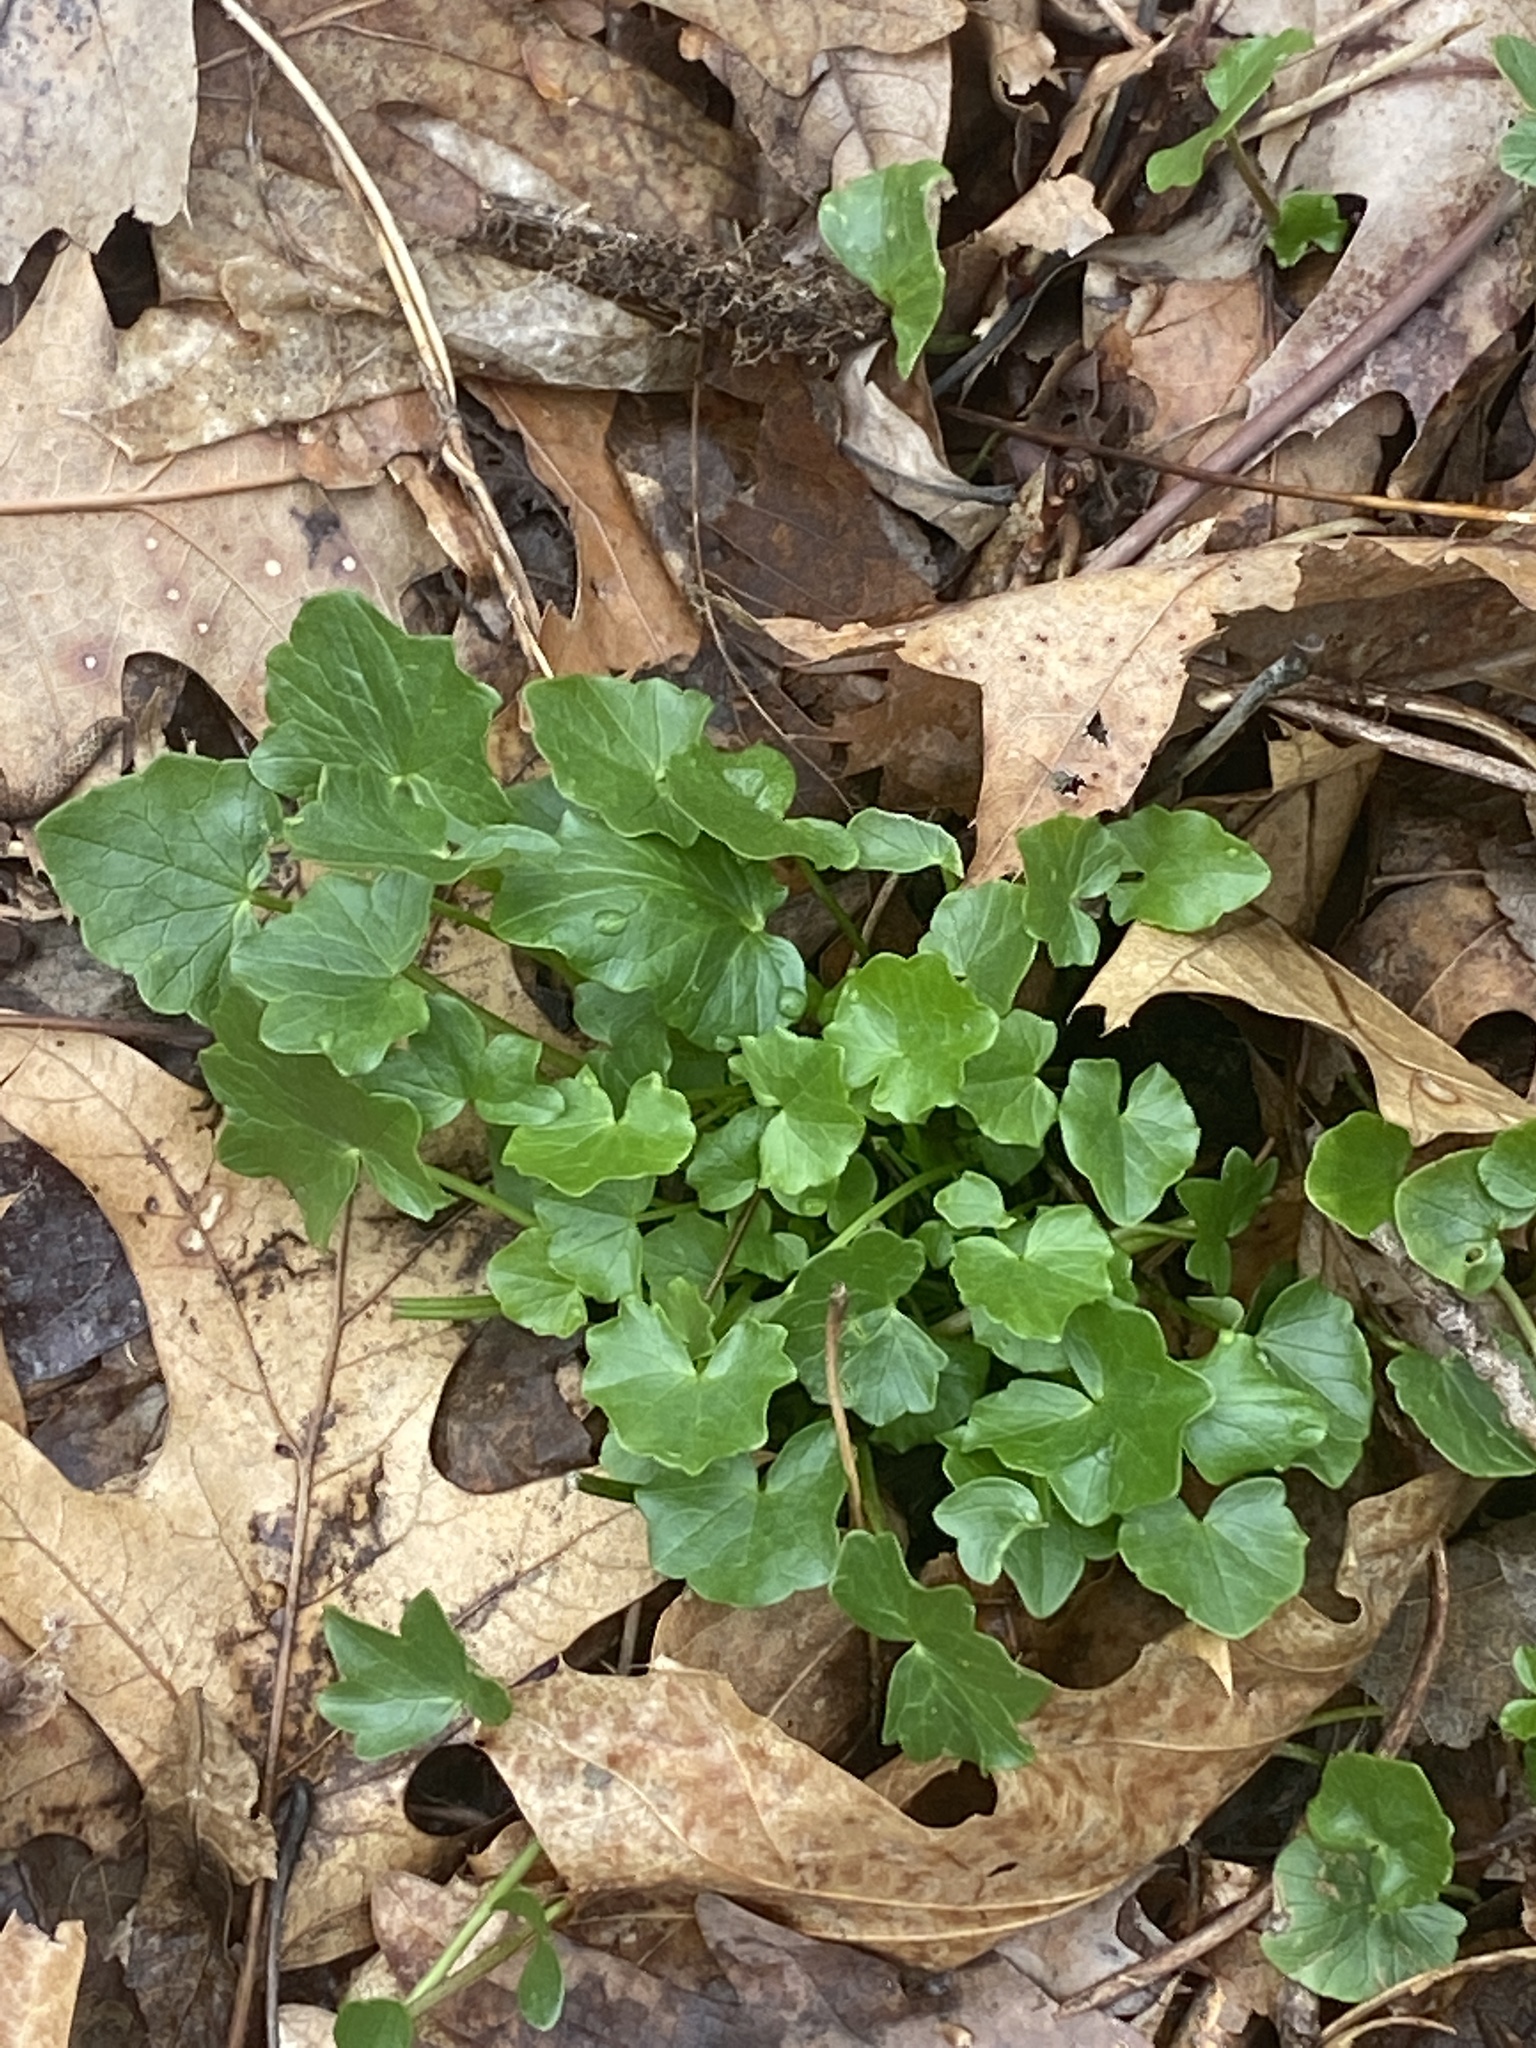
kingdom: Plantae
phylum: Tracheophyta
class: Magnoliopsida
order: Ranunculales
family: Ranunculaceae
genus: Ficaria
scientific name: Ficaria verna
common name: Lesser celandine
